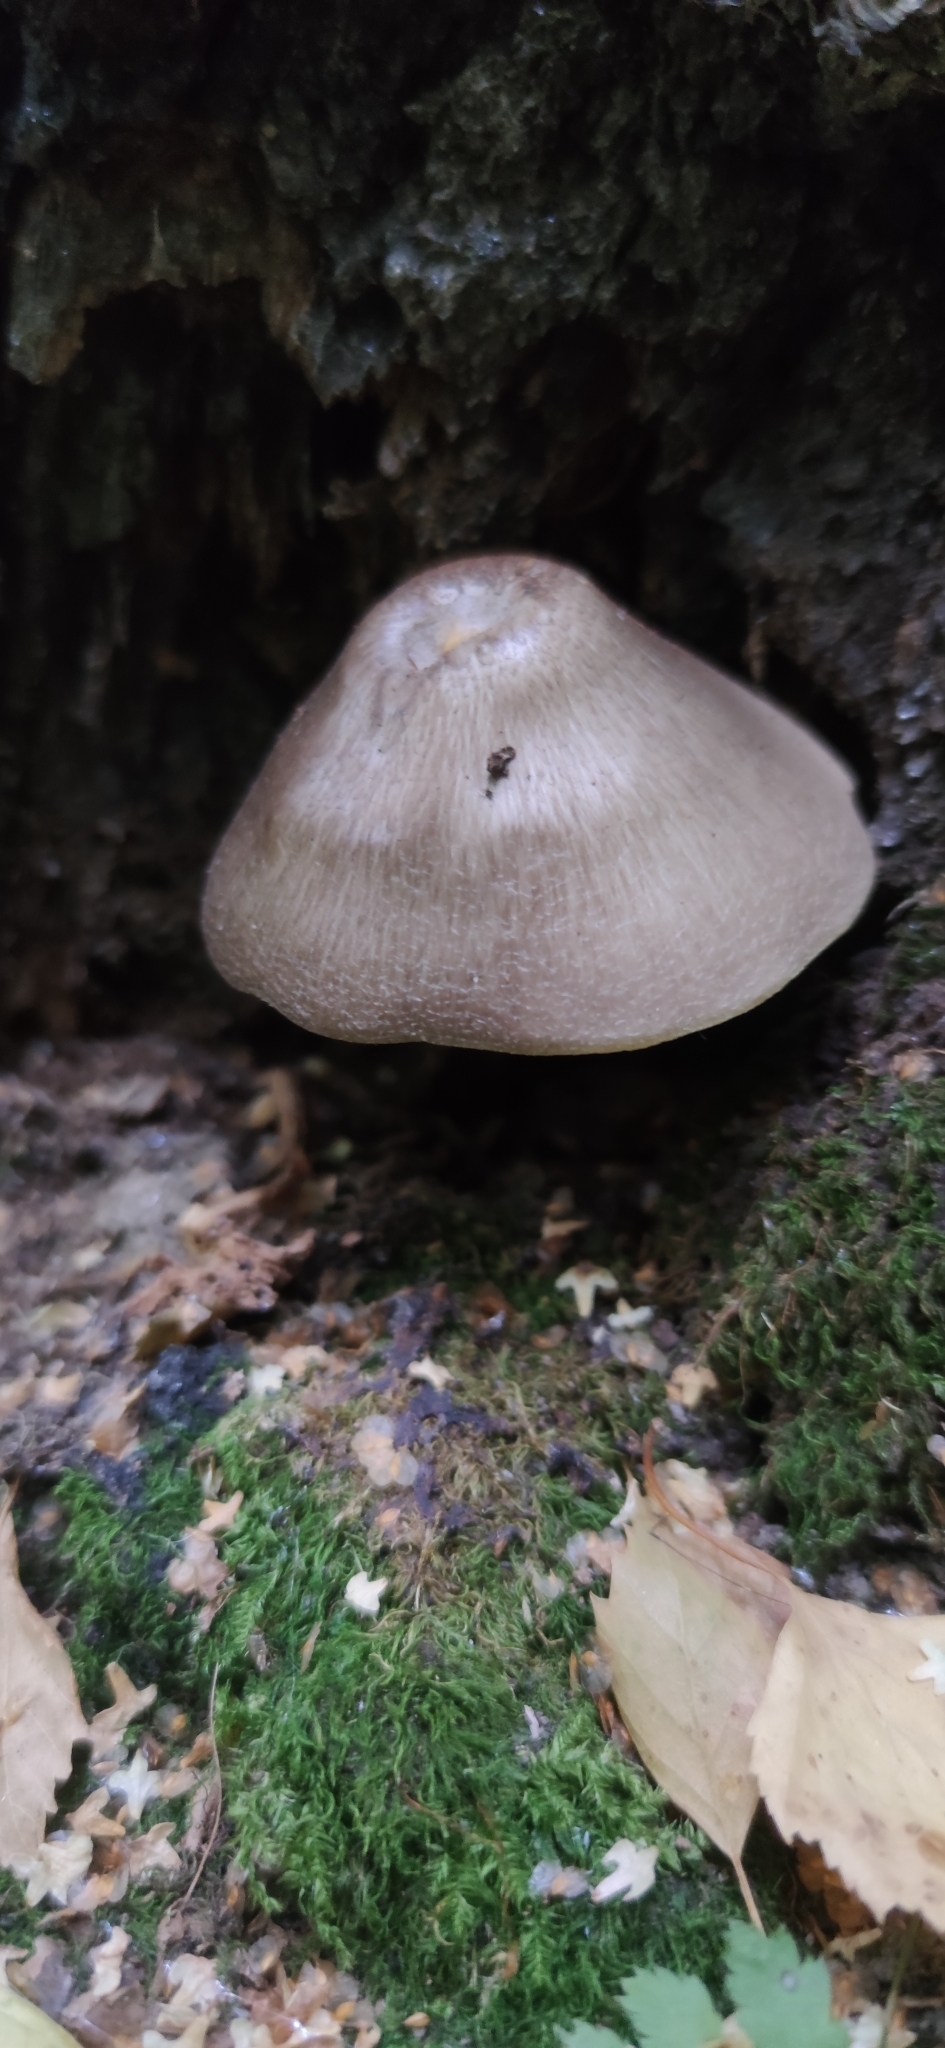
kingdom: Fungi
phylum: Basidiomycota
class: Agaricomycetes
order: Agaricales
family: Pluteaceae
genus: Pluteus
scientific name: Pluteus cervinus
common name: Deer shield
